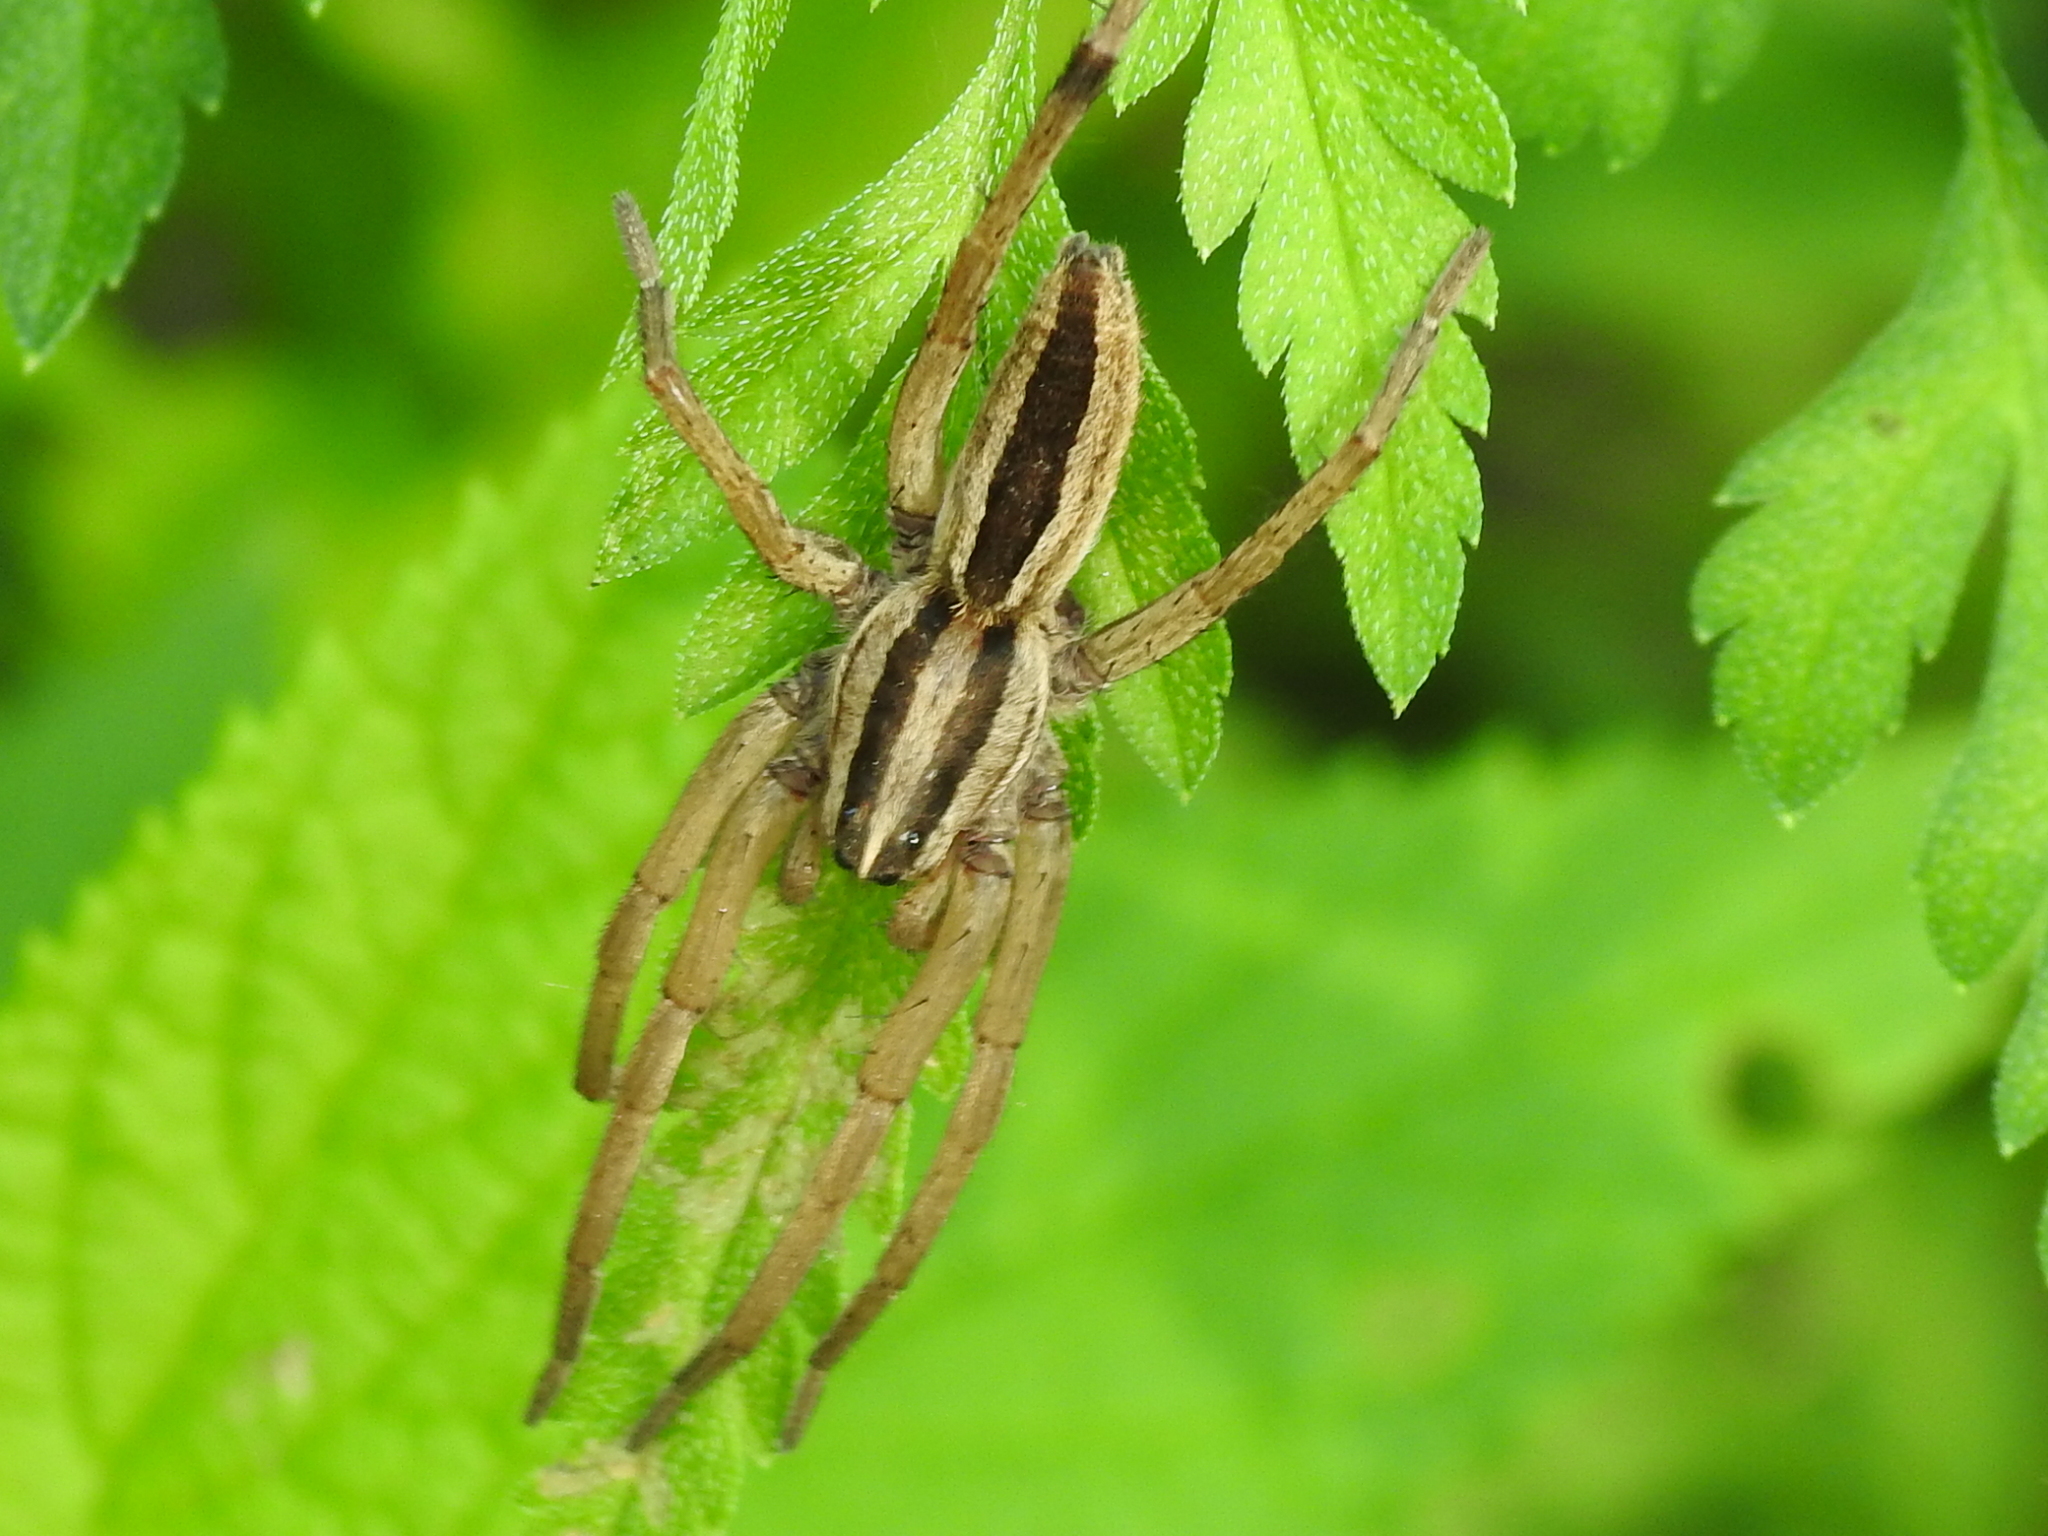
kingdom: Animalia
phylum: Arthropoda
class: Arachnida
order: Araneae
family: Lycosidae
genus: Rabidosa
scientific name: Rabidosa punctulata
